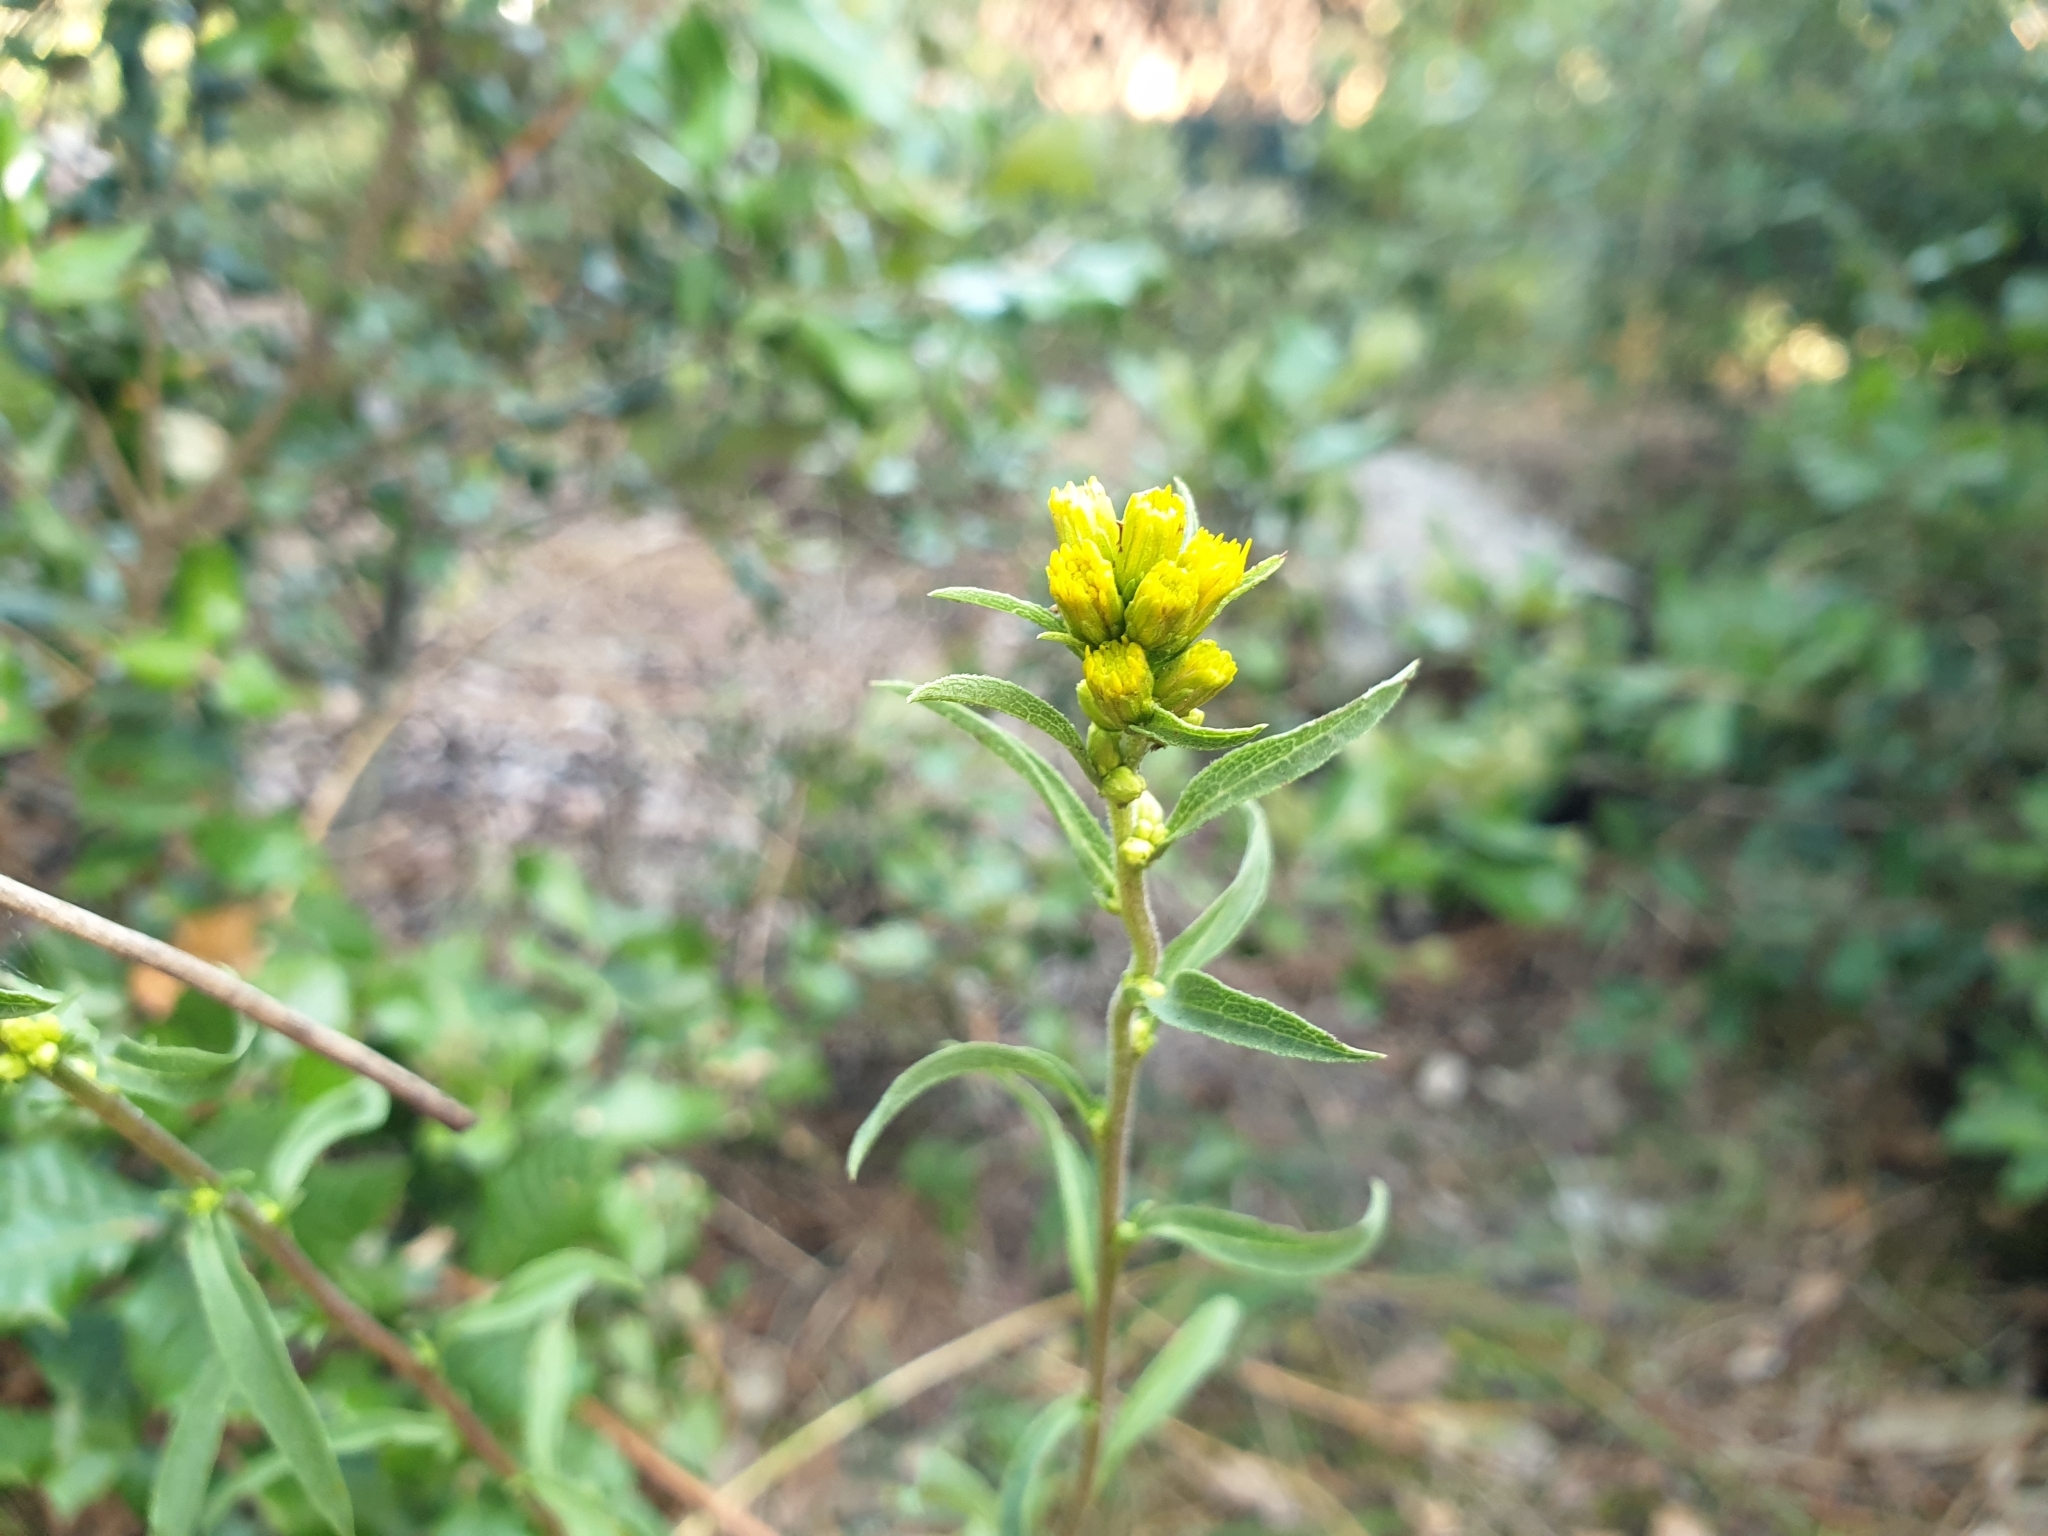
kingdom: Plantae
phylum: Tracheophyta
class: Magnoliopsida
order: Asterales
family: Asteraceae
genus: Solidago
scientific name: Solidago virgaurea
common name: Goldenrod
